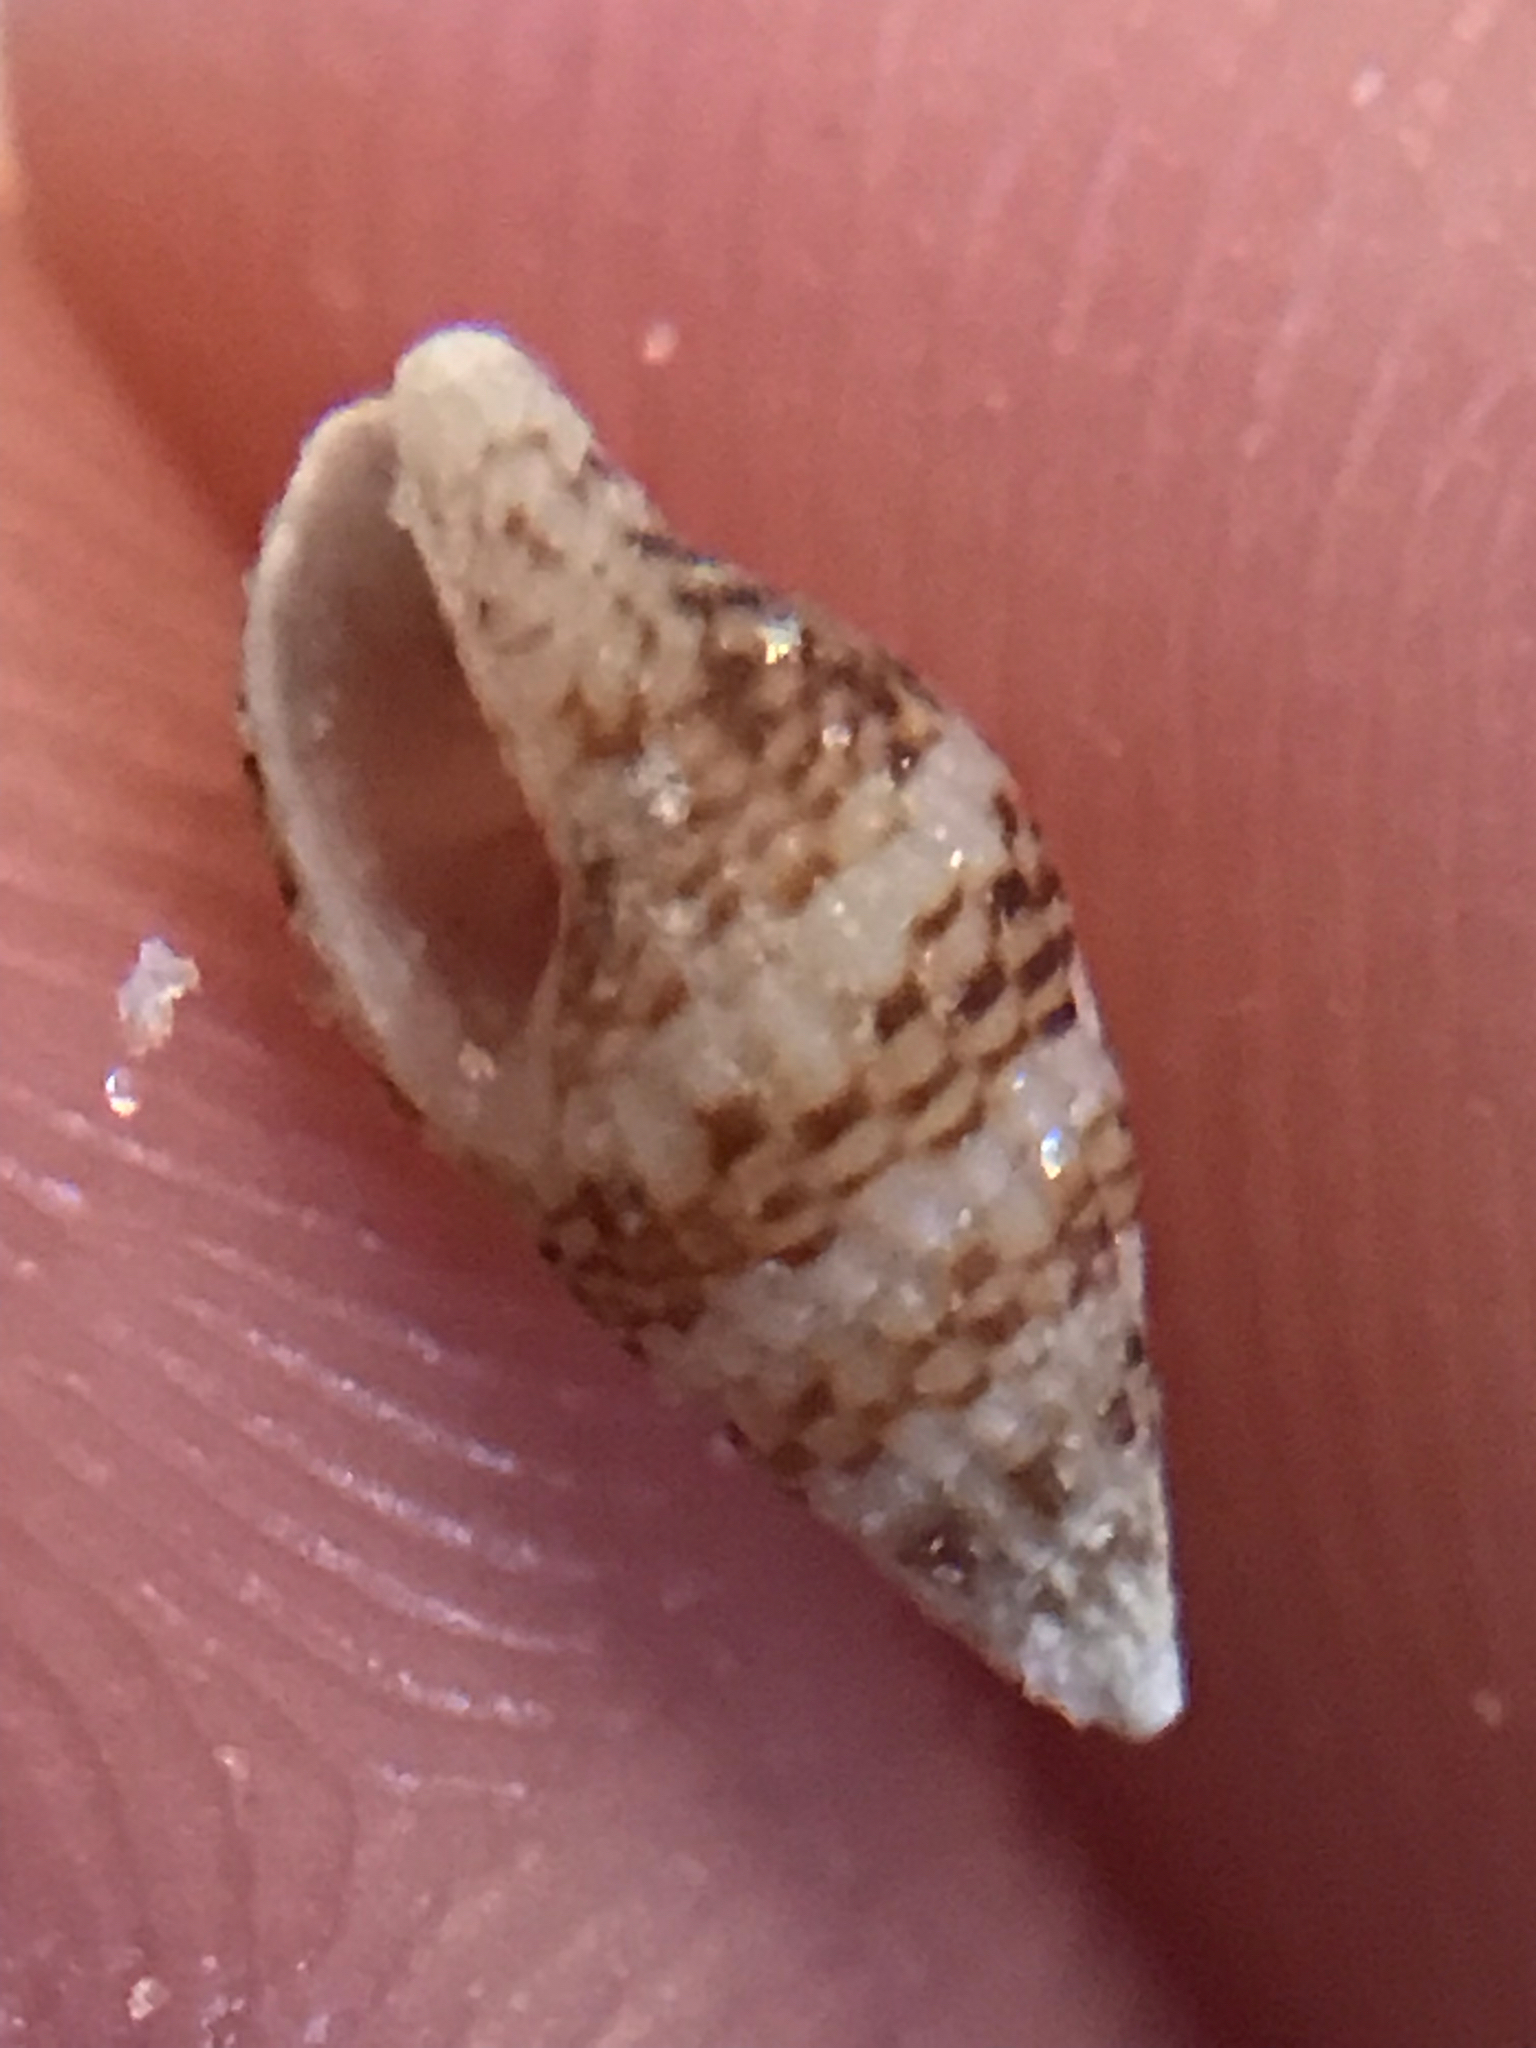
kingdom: Animalia
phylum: Mollusca
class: Gastropoda
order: Neogastropoda
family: Columbellidae
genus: Costoanachis
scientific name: Costoanachis sparsa
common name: Sparse dovesnail
